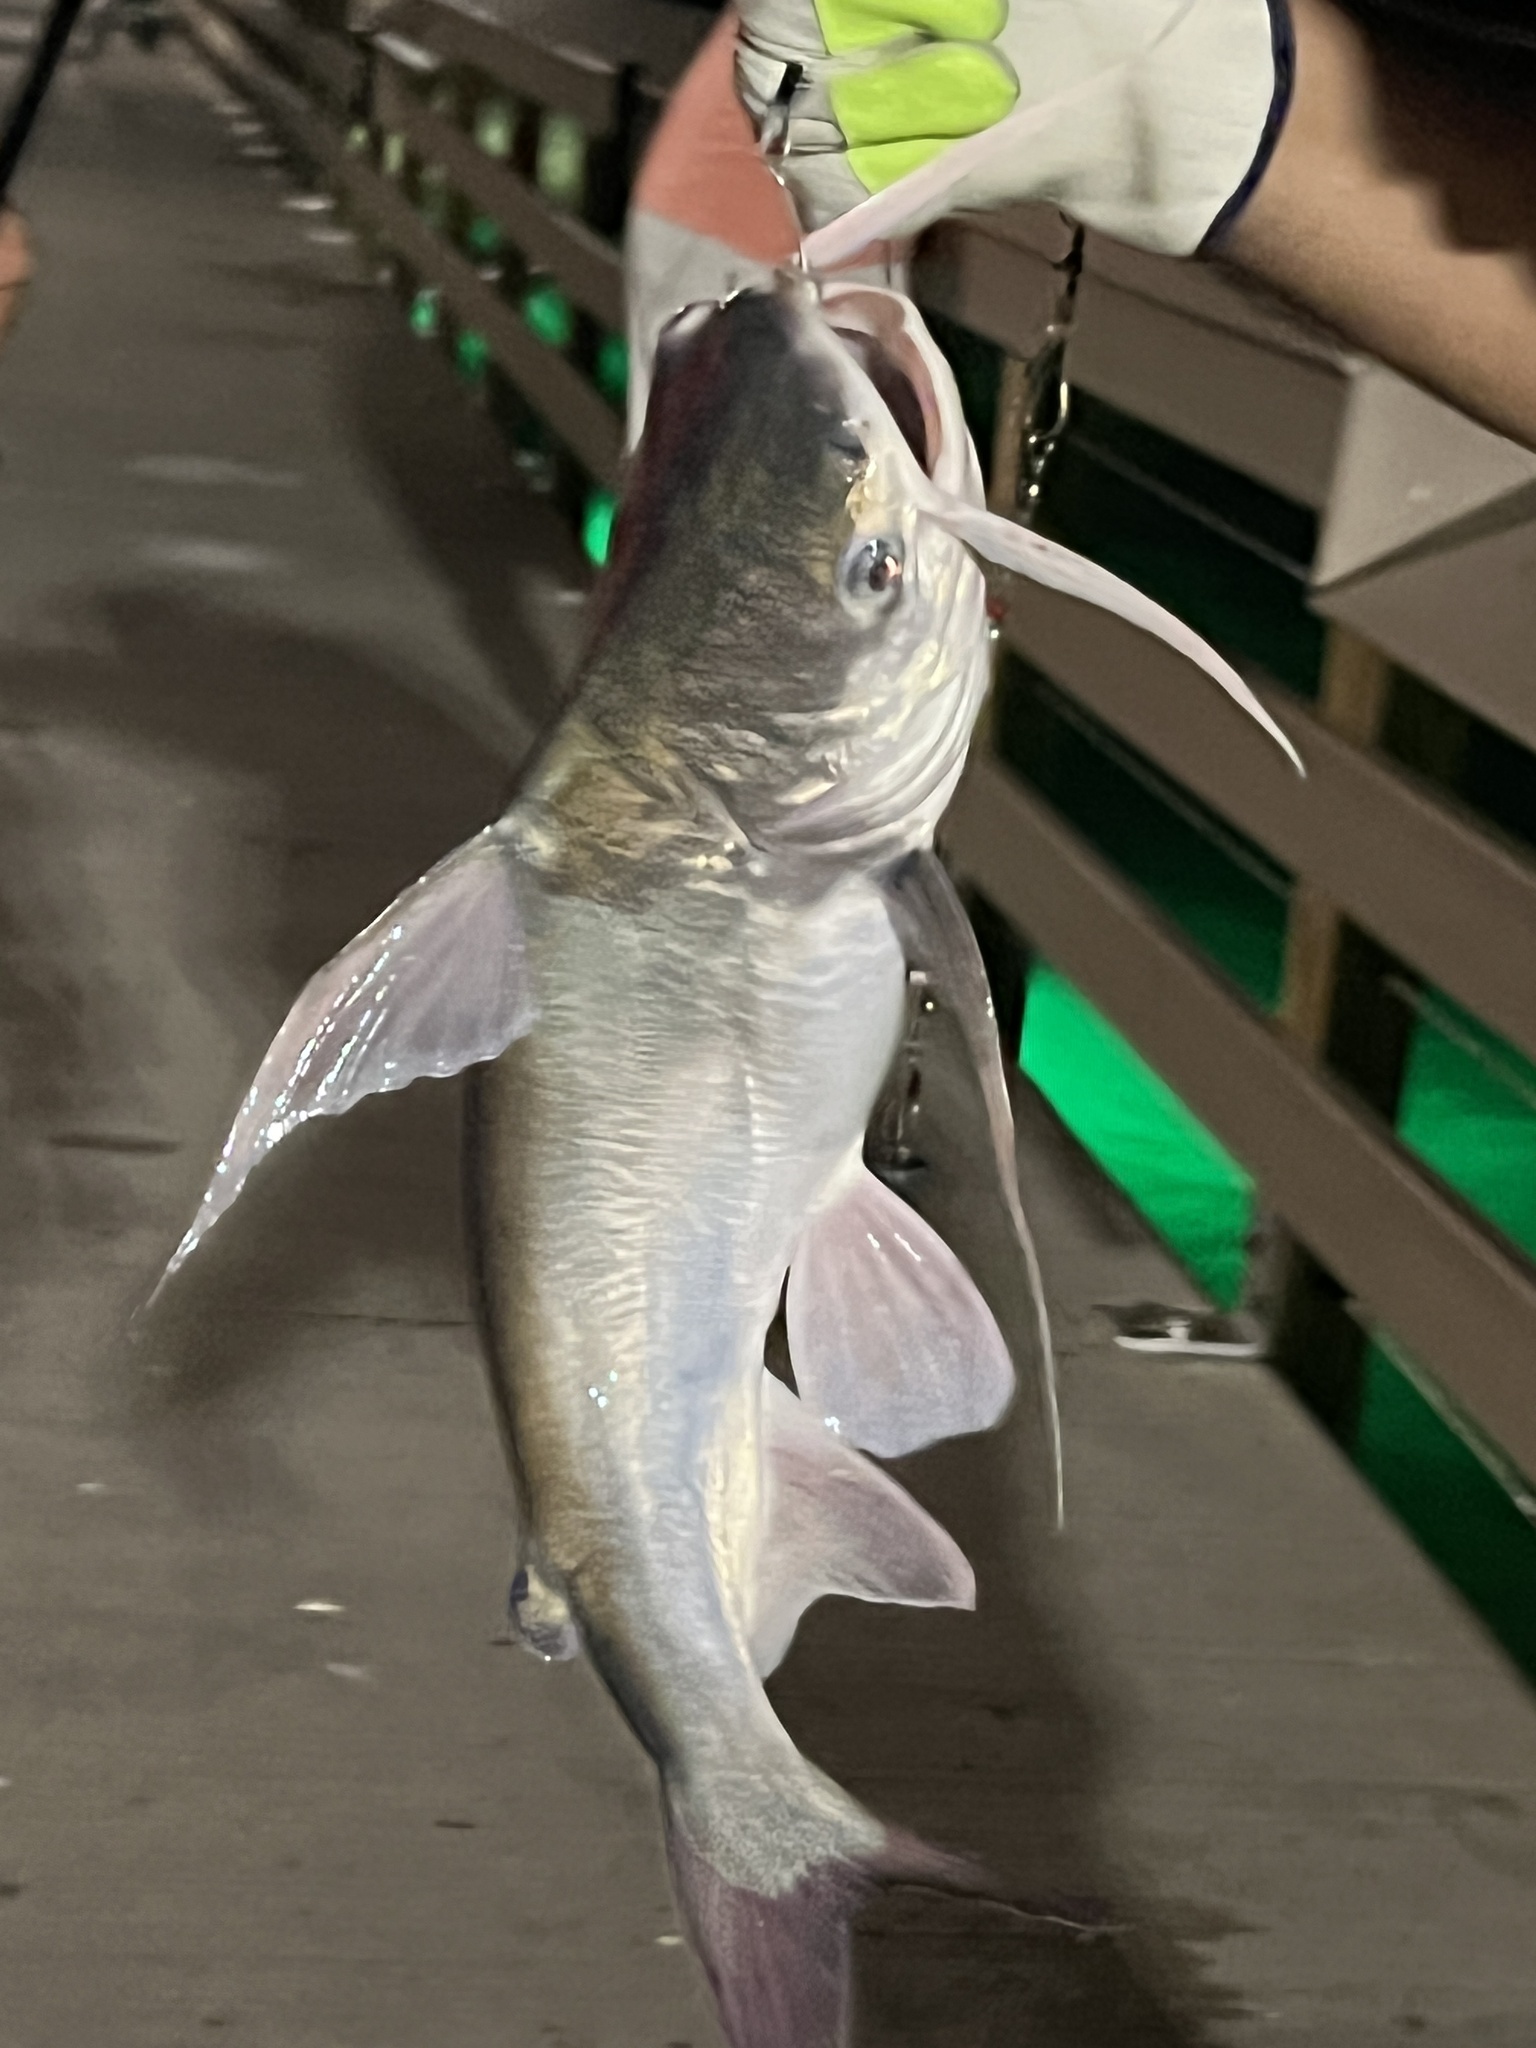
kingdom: Animalia
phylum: Chordata
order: Siluriformes
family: Ariidae
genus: Bagre
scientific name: Bagre marinus
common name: Gafftopsail sea catfish
